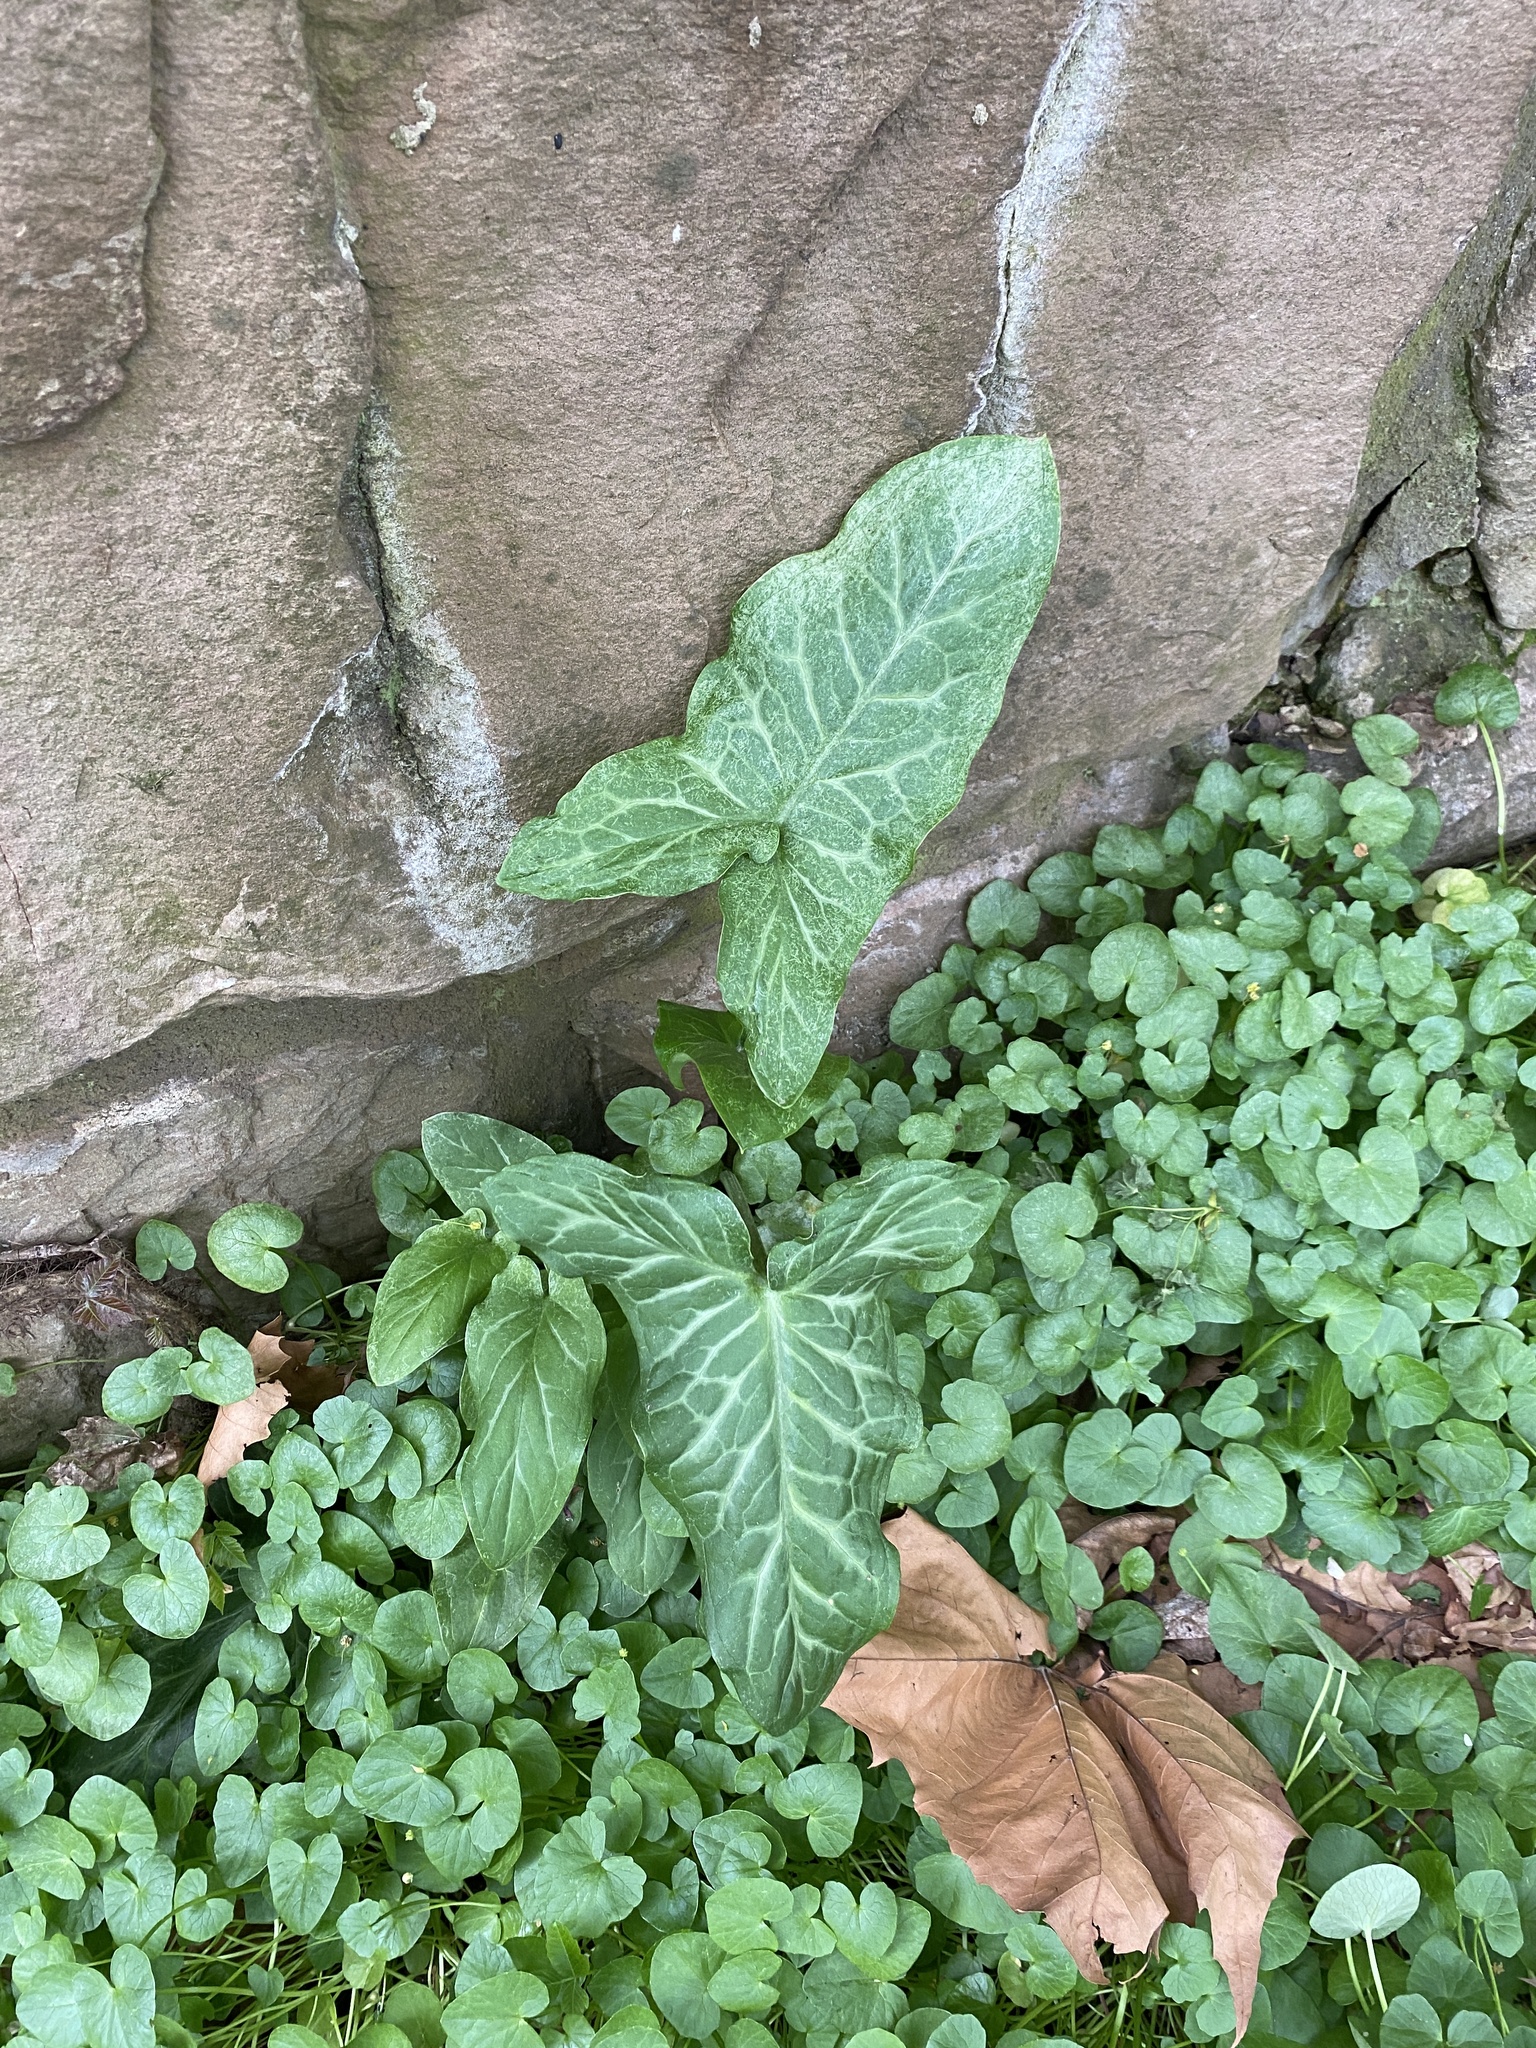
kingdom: Plantae
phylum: Tracheophyta
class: Liliopsida
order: Alismatales
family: Araceae
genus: Arum
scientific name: Arum italicum
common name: Italian lords-and-ladies
